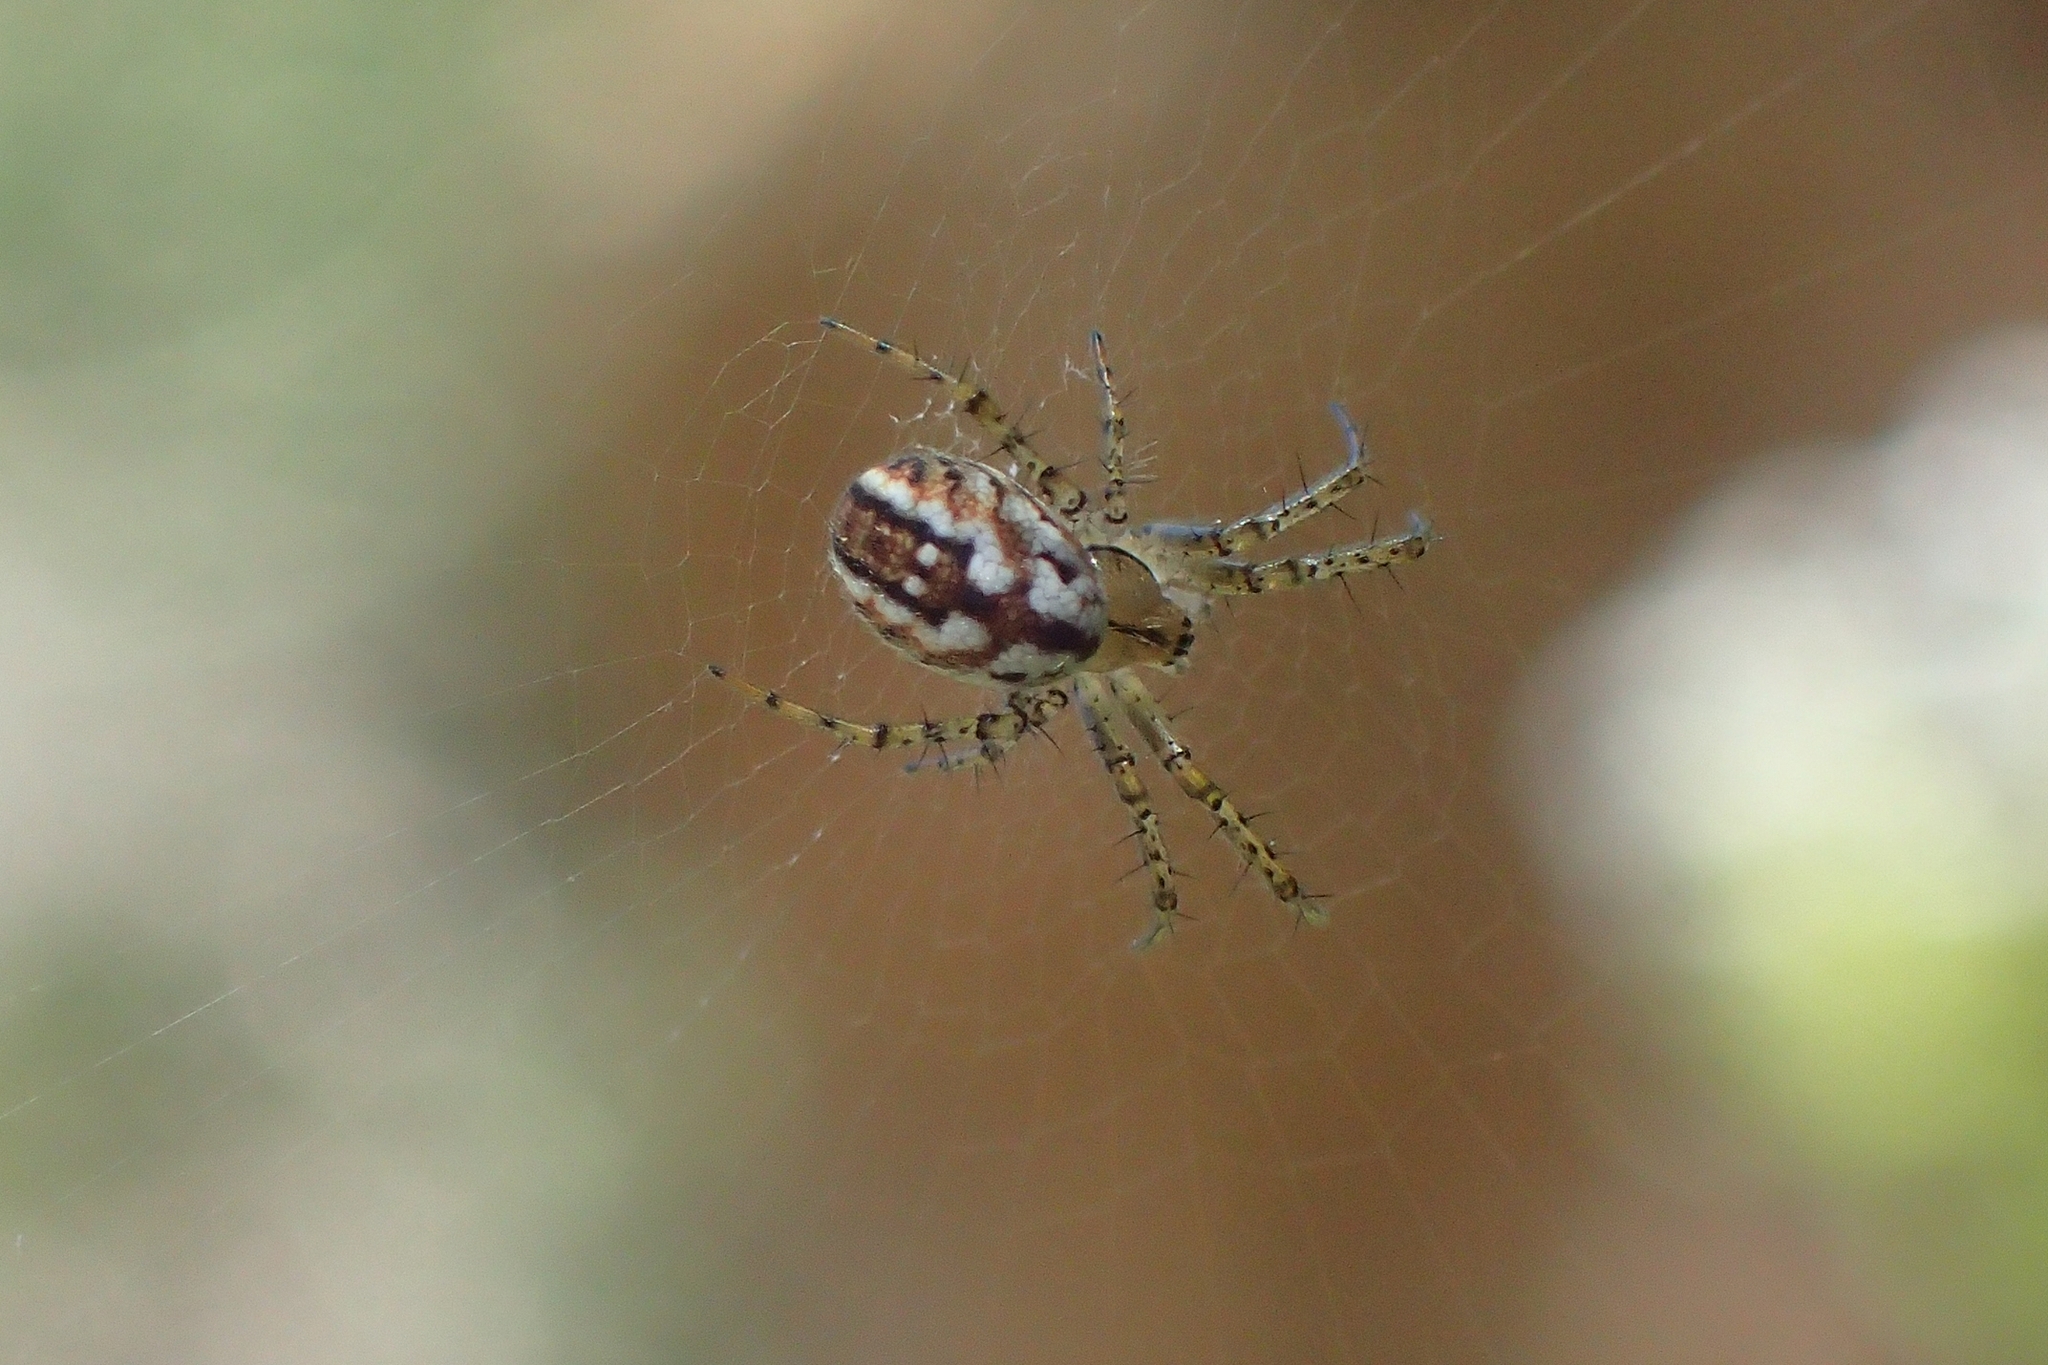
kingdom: Animalia
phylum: Arthropoda
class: Arachnida
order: Araneae
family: Araneidae
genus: Mangora
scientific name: Mangora acalypha
